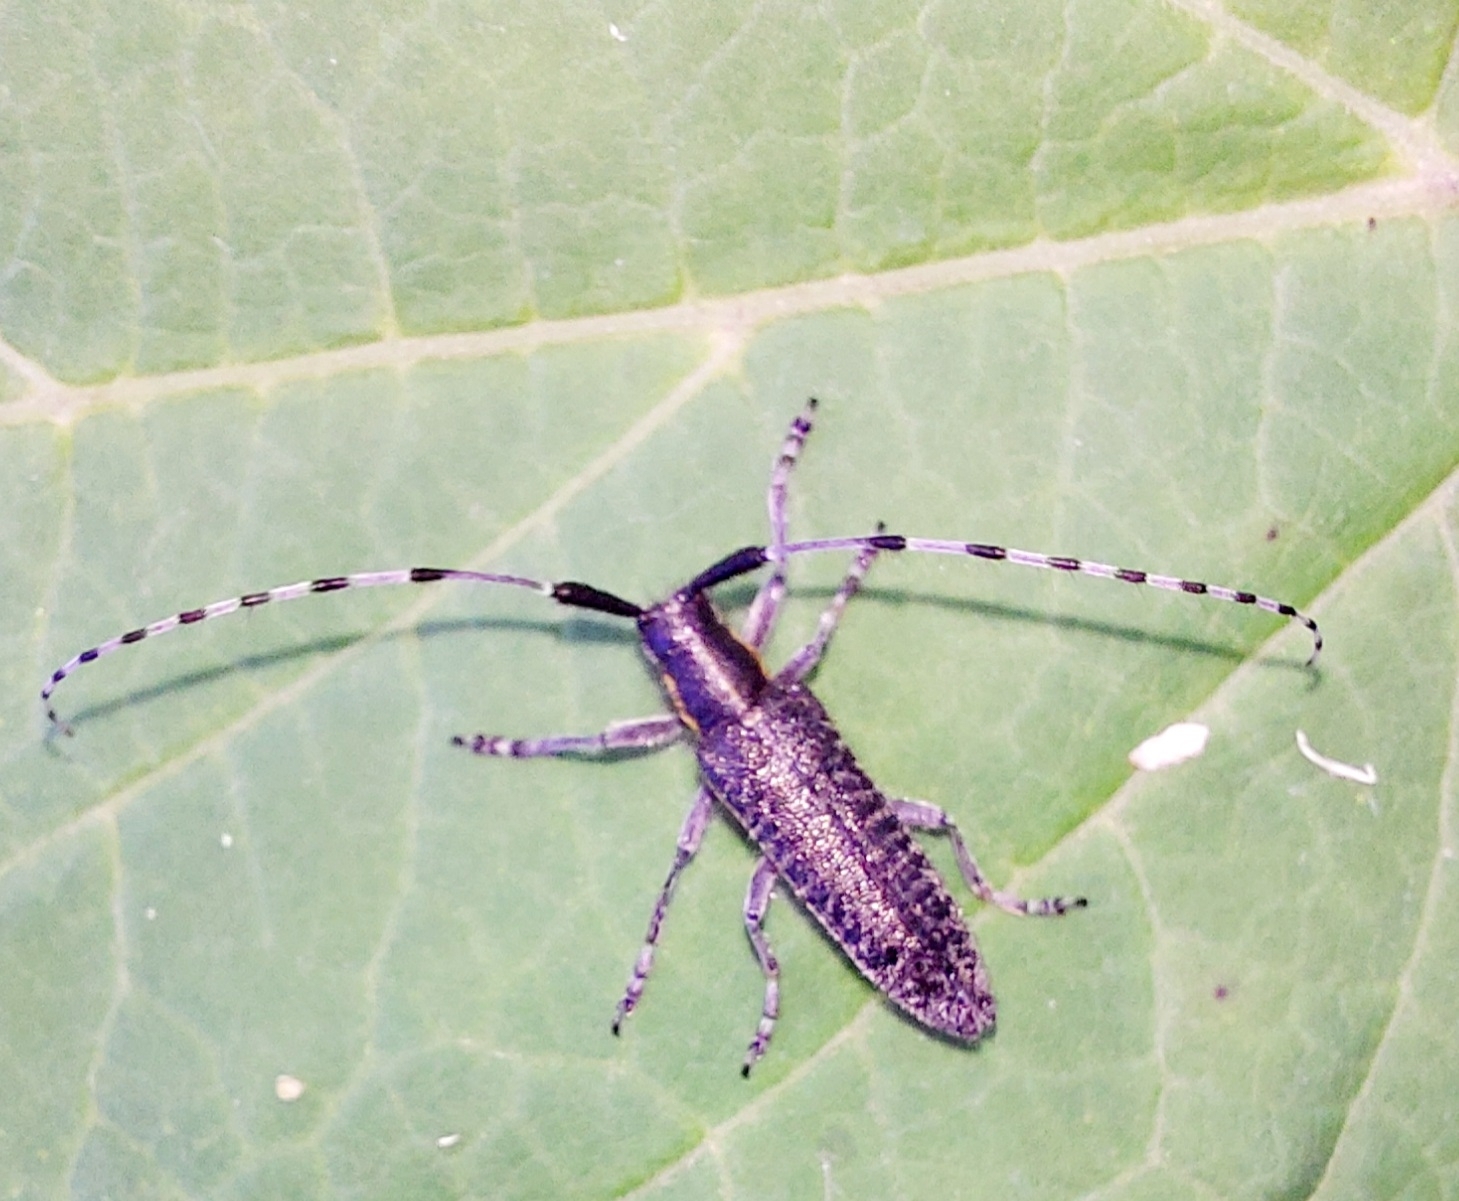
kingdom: Animalia
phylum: Arthropoda
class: Insecta
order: Coleoptera
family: Cerambycidae
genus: Agapanthia
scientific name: Agapanthia villosoviridescens
